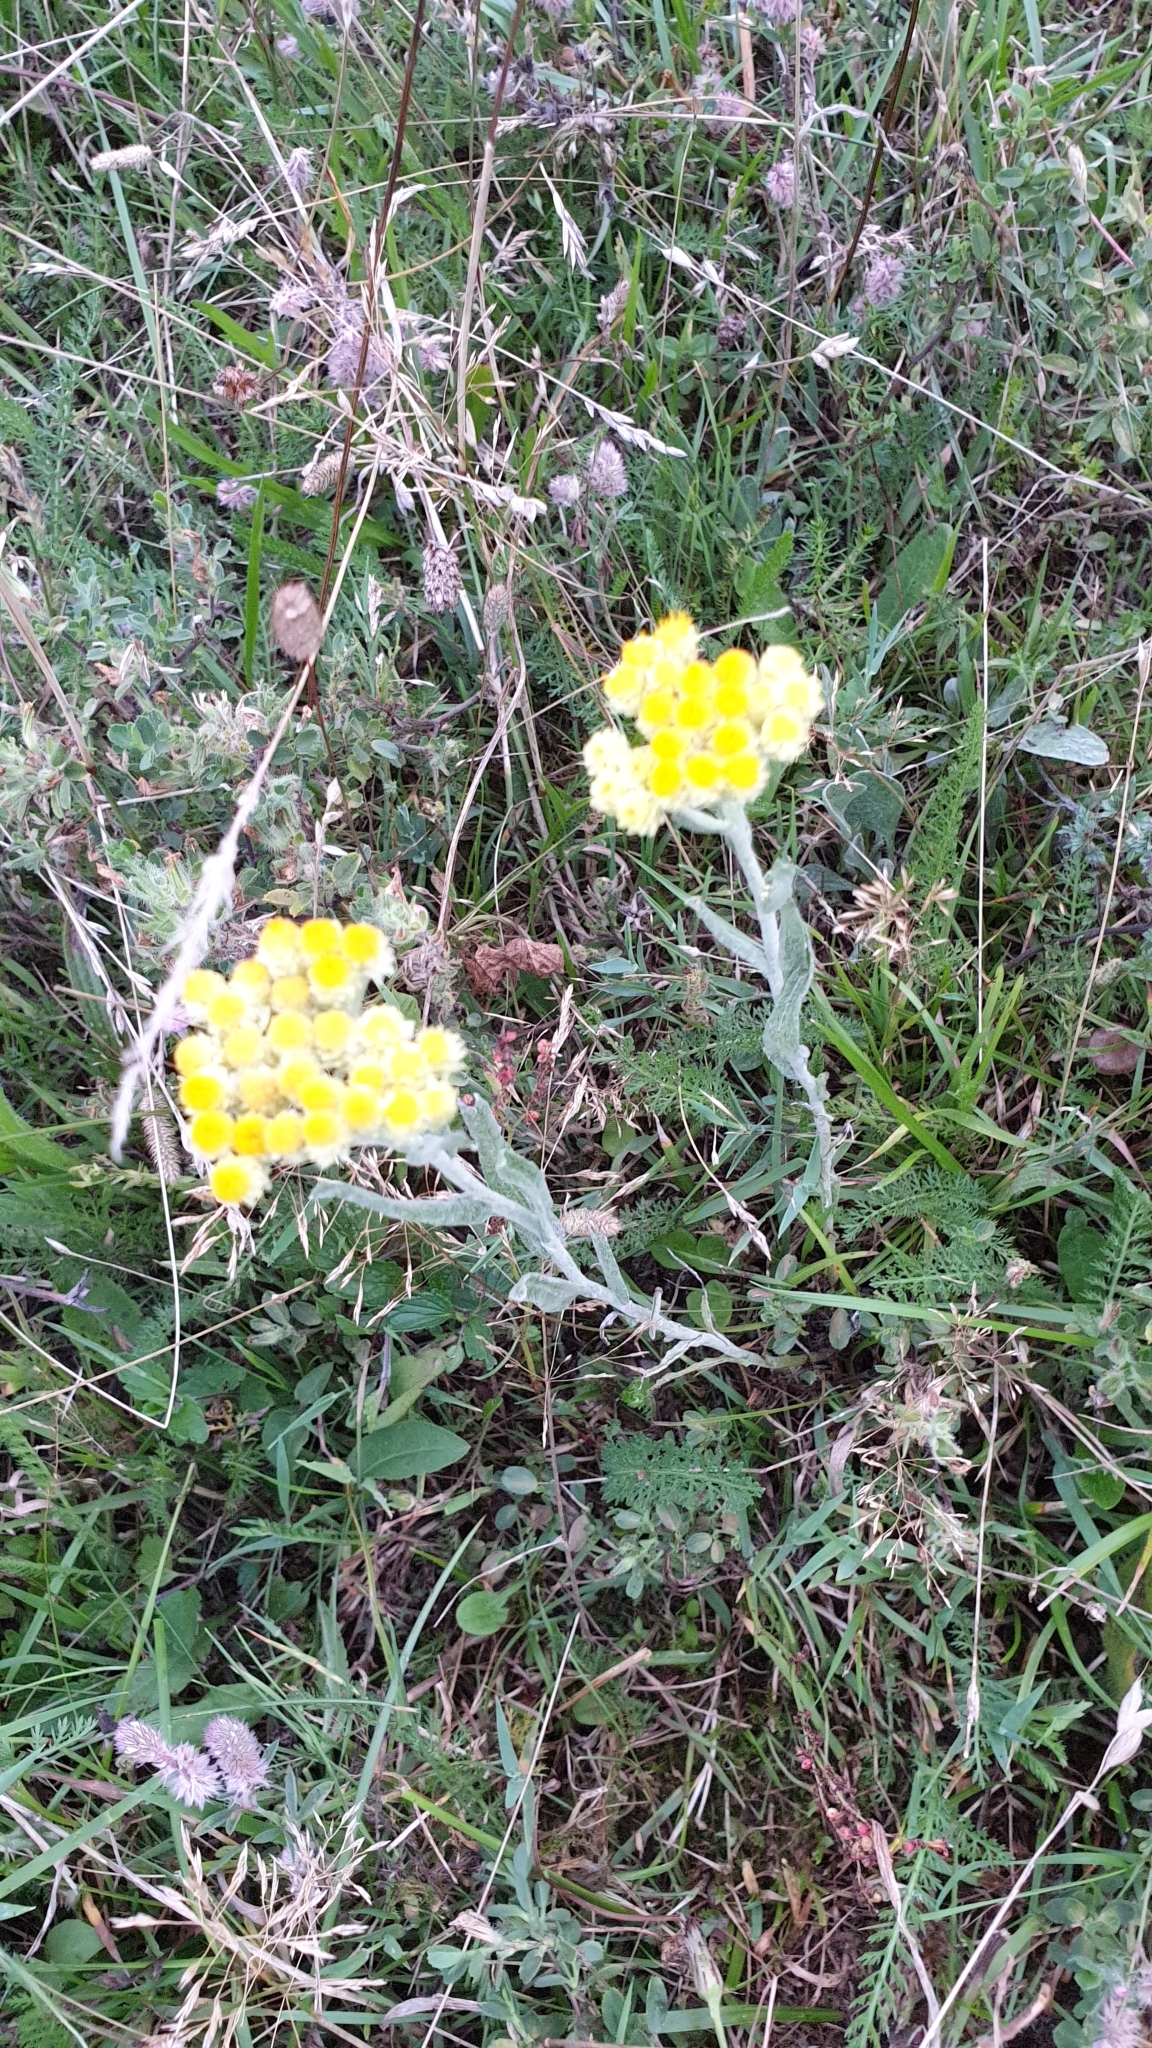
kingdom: Plantae
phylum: Tracheophyta
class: Magnoliopsida
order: Asterales
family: Asteraceae
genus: Helichrysum
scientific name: Helichrysum arenarium
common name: Strawflower
